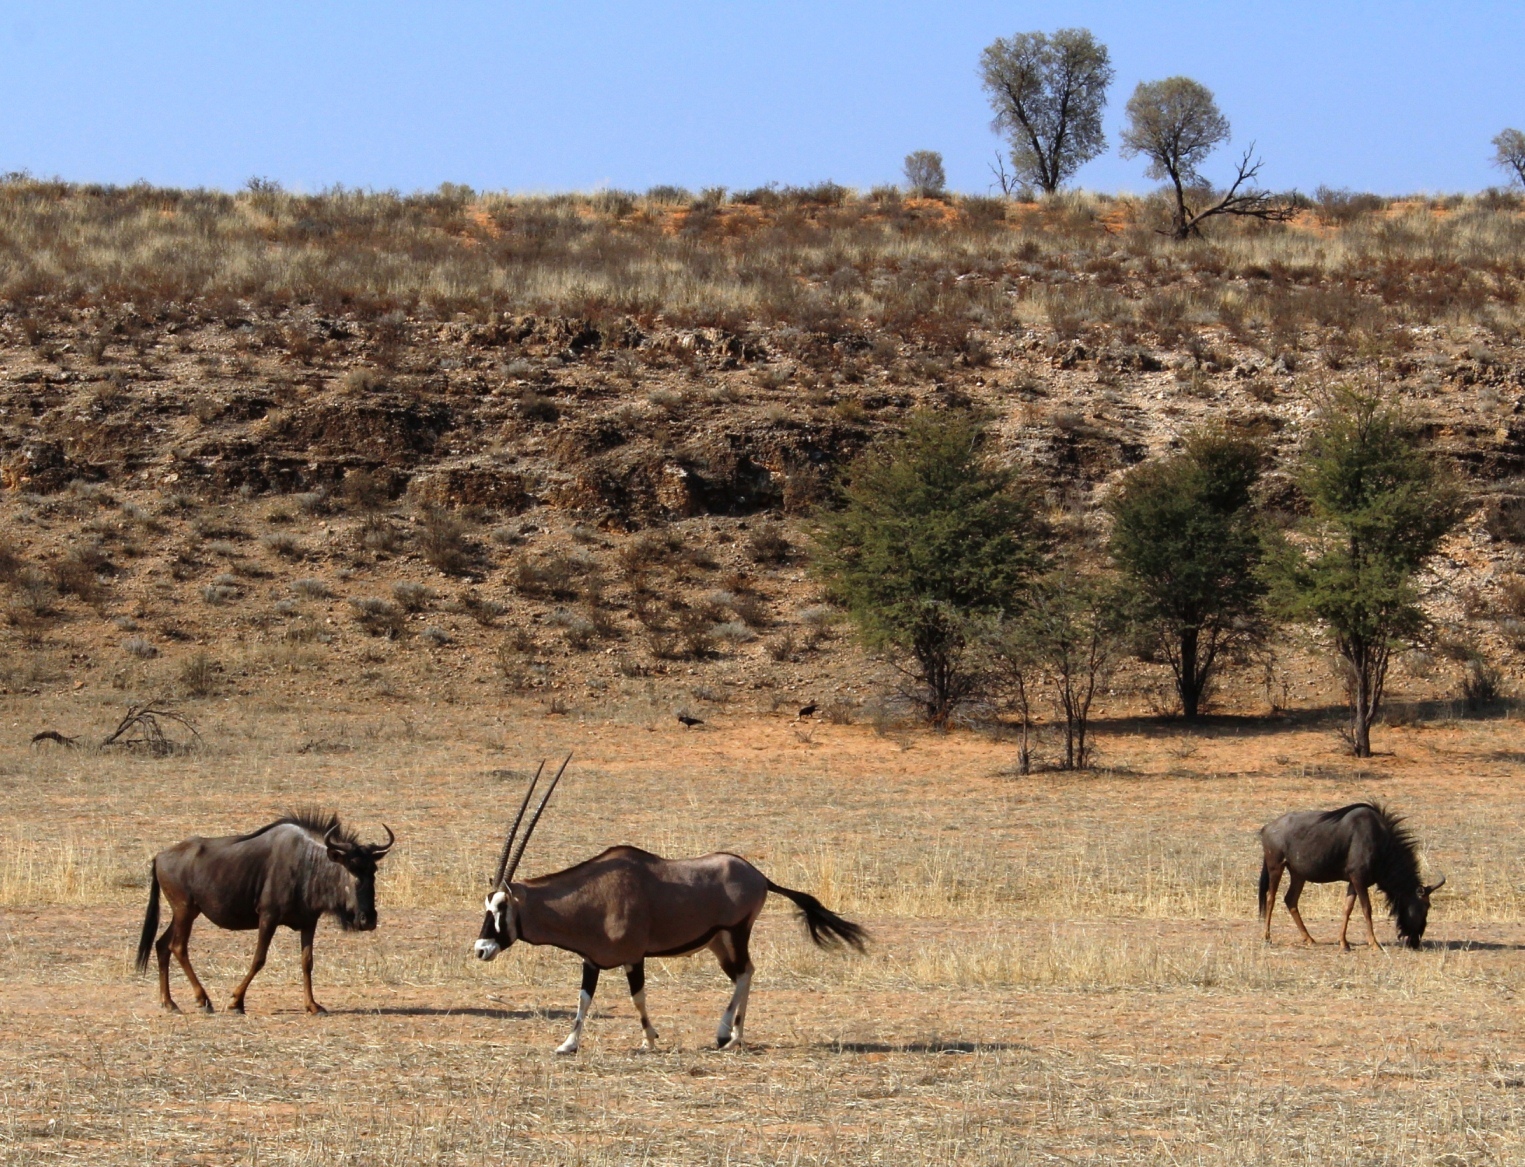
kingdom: Animalia
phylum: Chordata
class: Mammalia
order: Artiodactyla
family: Bovidae
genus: Oryx
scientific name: Oryx gazella
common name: Gemsbok
